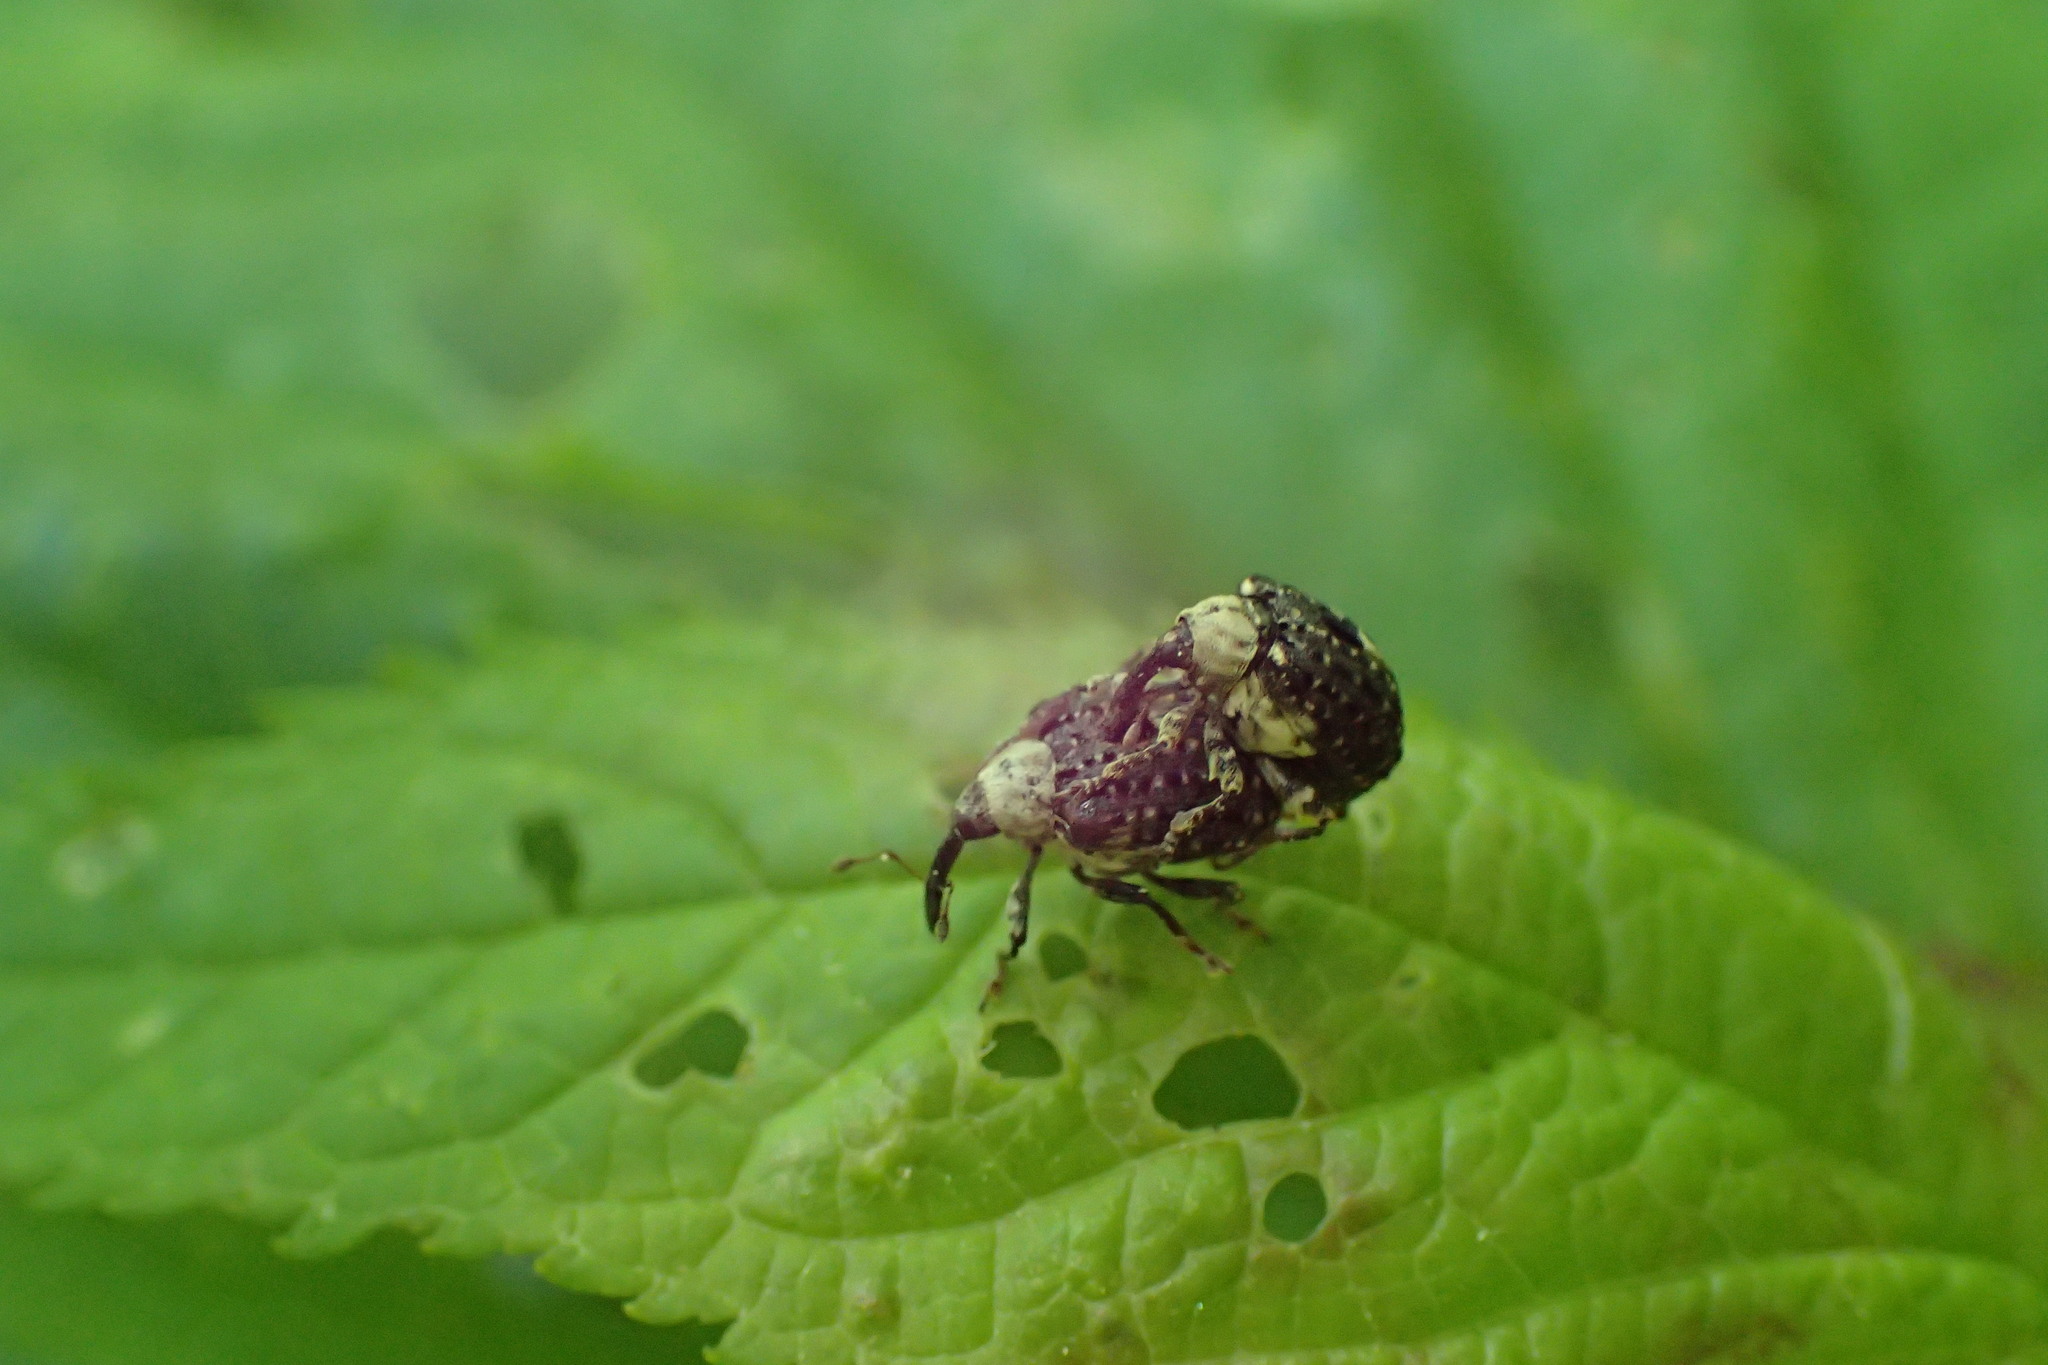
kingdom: Animalia
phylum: Arthropoda
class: Insecta
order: Coleoptera
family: Curculionidae
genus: Cionus
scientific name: Cionus scrophulariae
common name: Common figwort weevil
